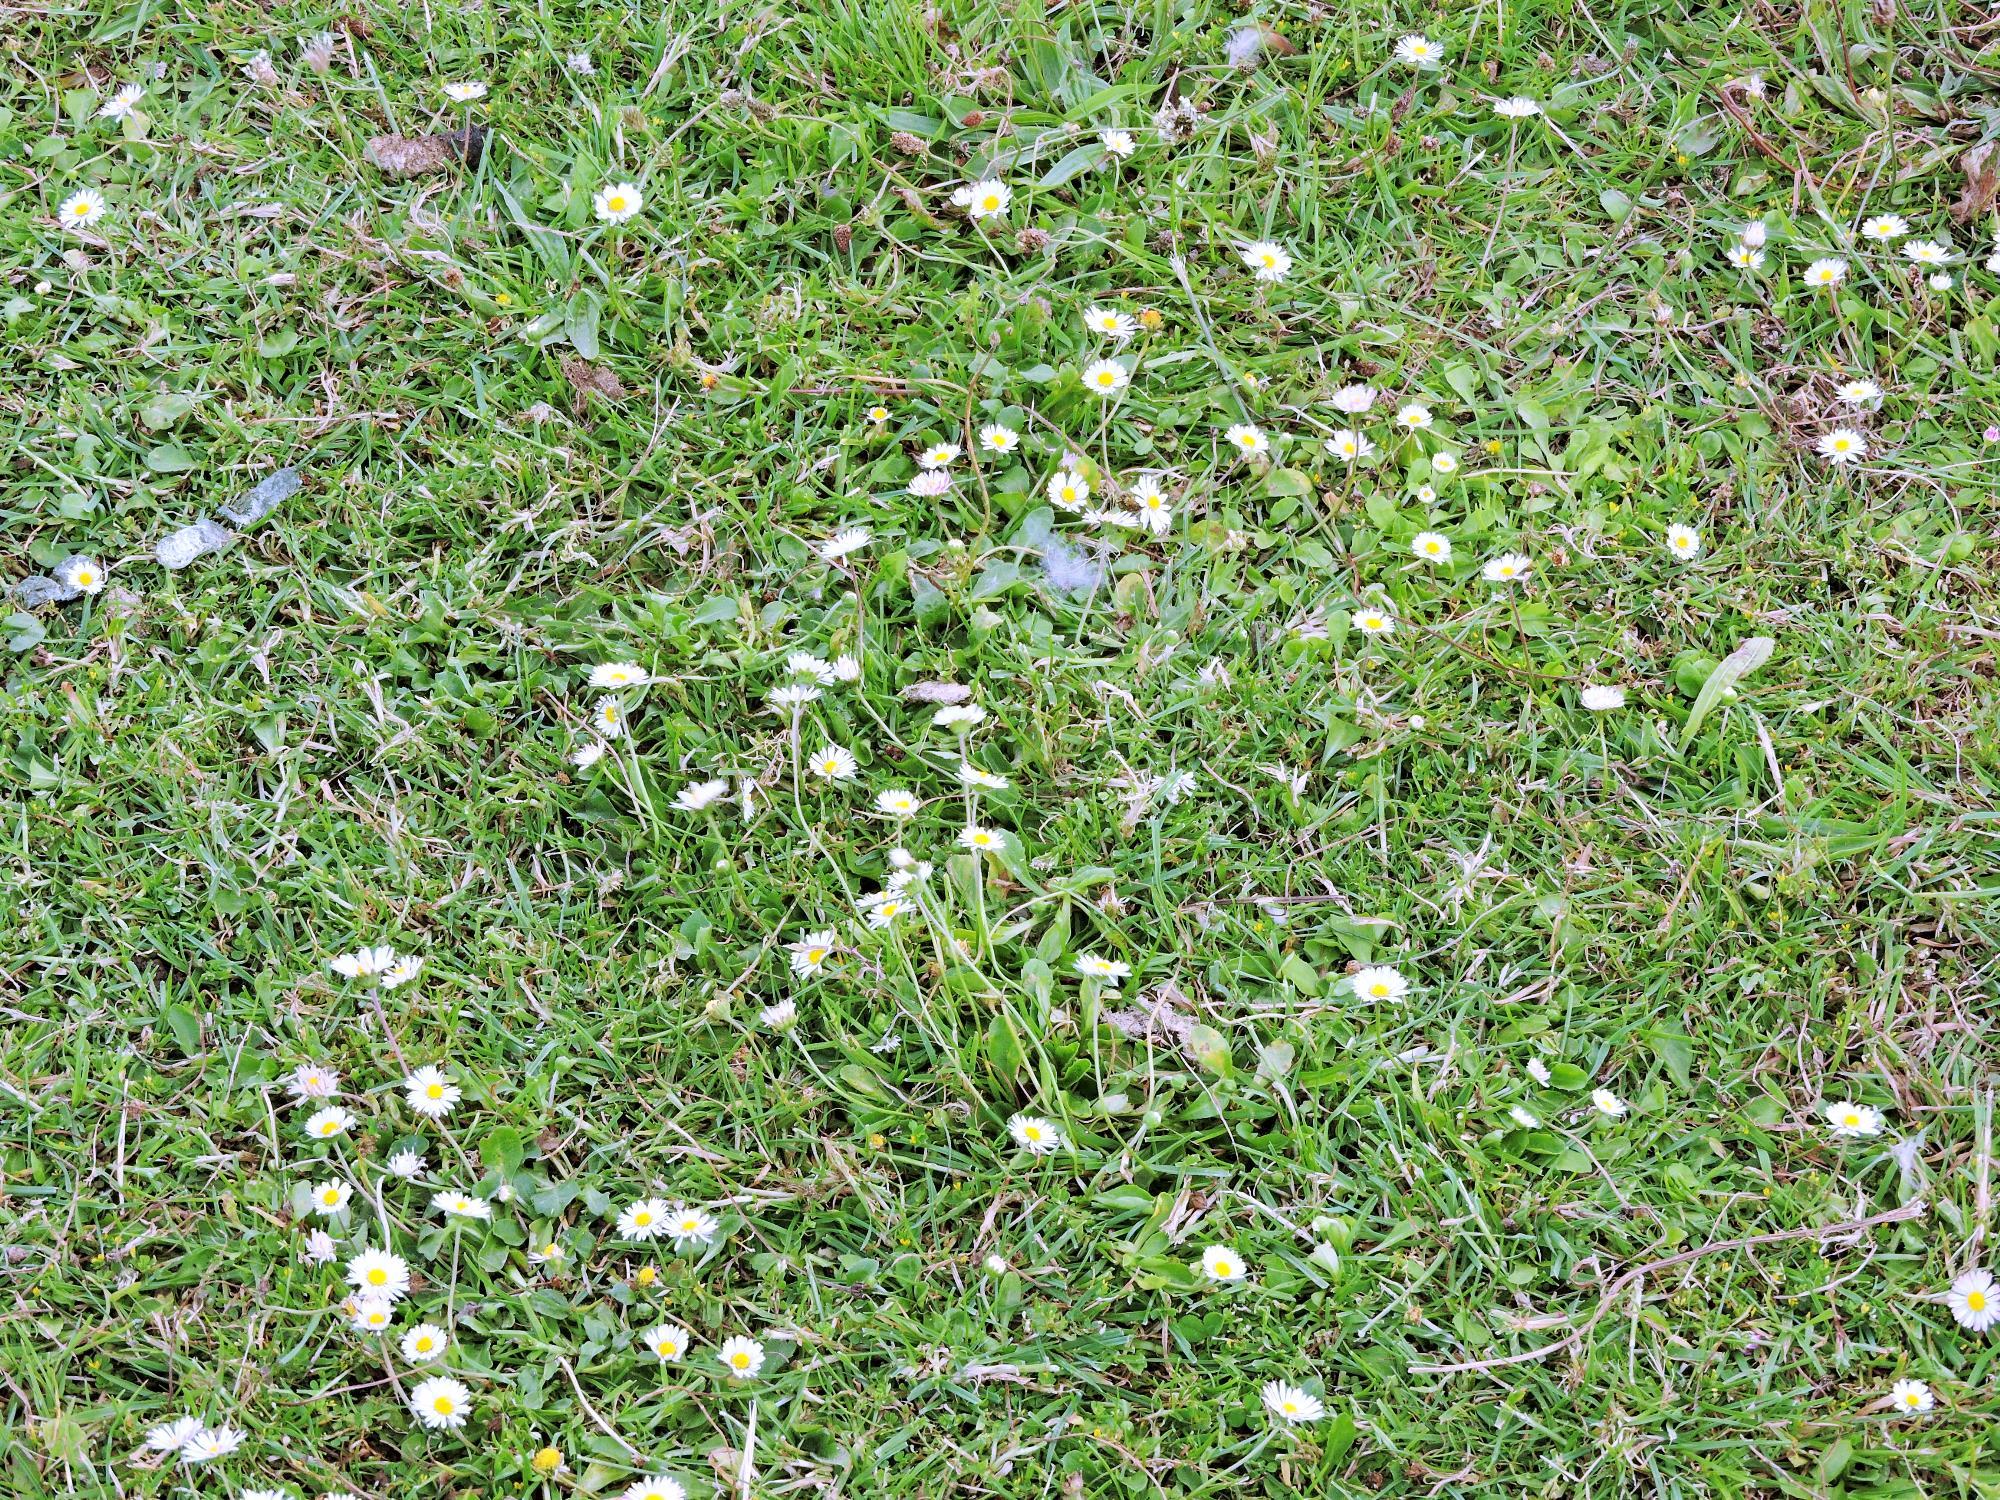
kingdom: Plantae
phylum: Tracheophyta
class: Magnoliopsida
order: Asterales
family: Asteraceae
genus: Bellis
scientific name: Bellis perennis
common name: Lawndaisy
